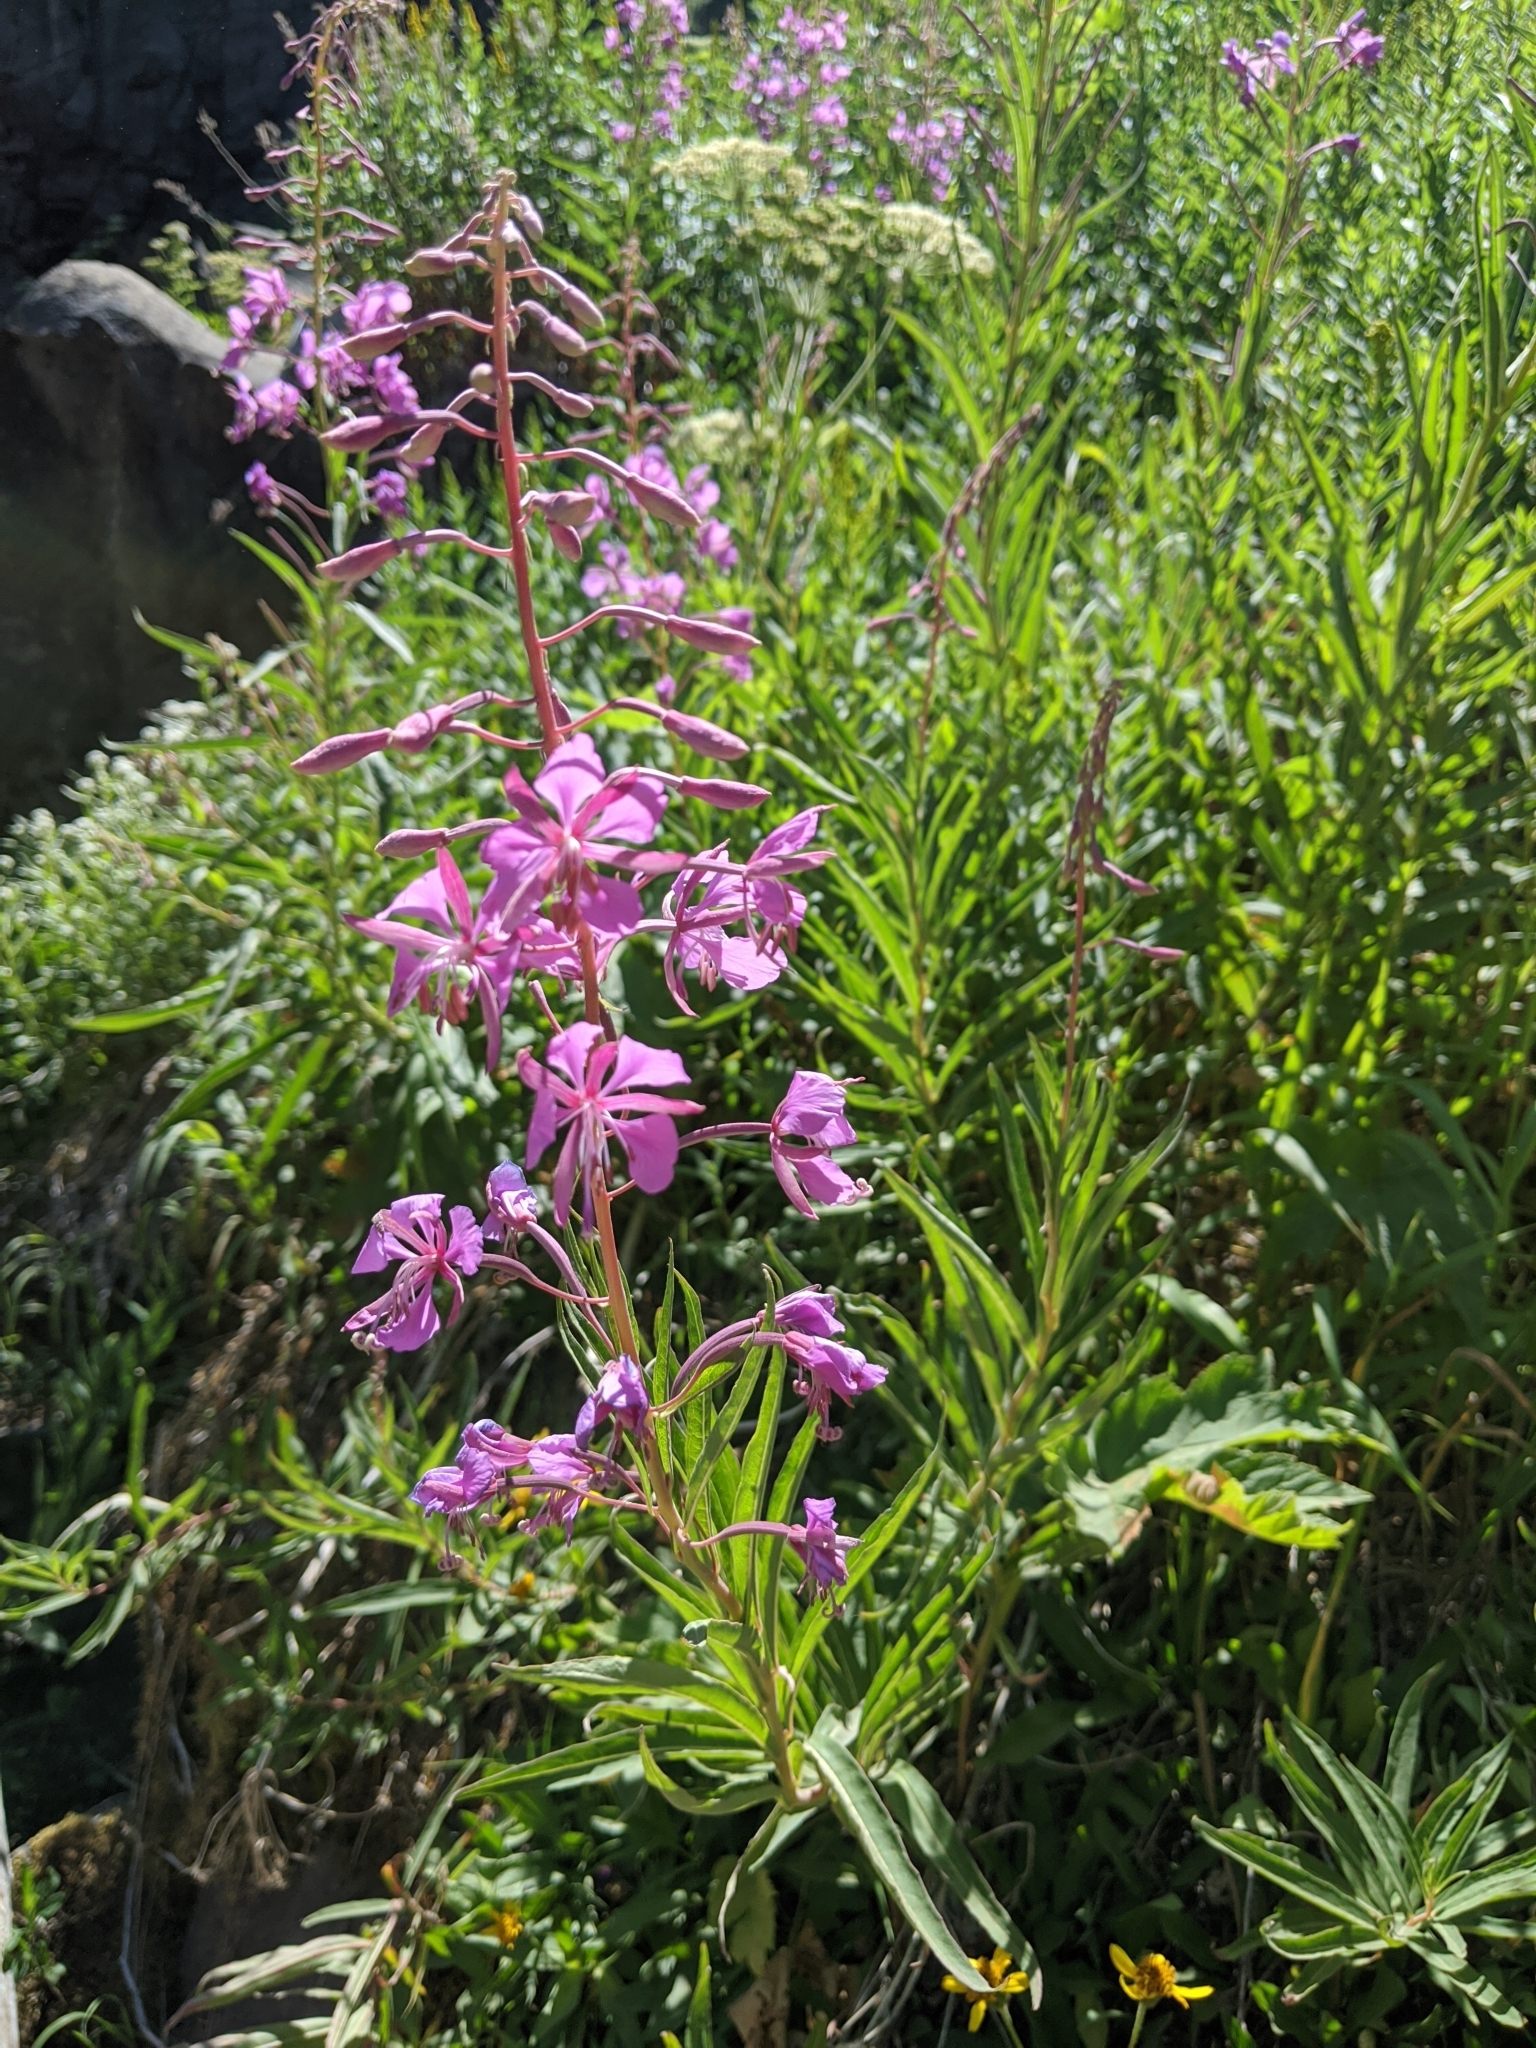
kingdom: Plantae
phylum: Tracheophyta
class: Magnoliopsida
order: Myrtales
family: Onagraceae
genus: Chamaenerion
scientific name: Chamaenerion angustifolium
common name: Fireweed
